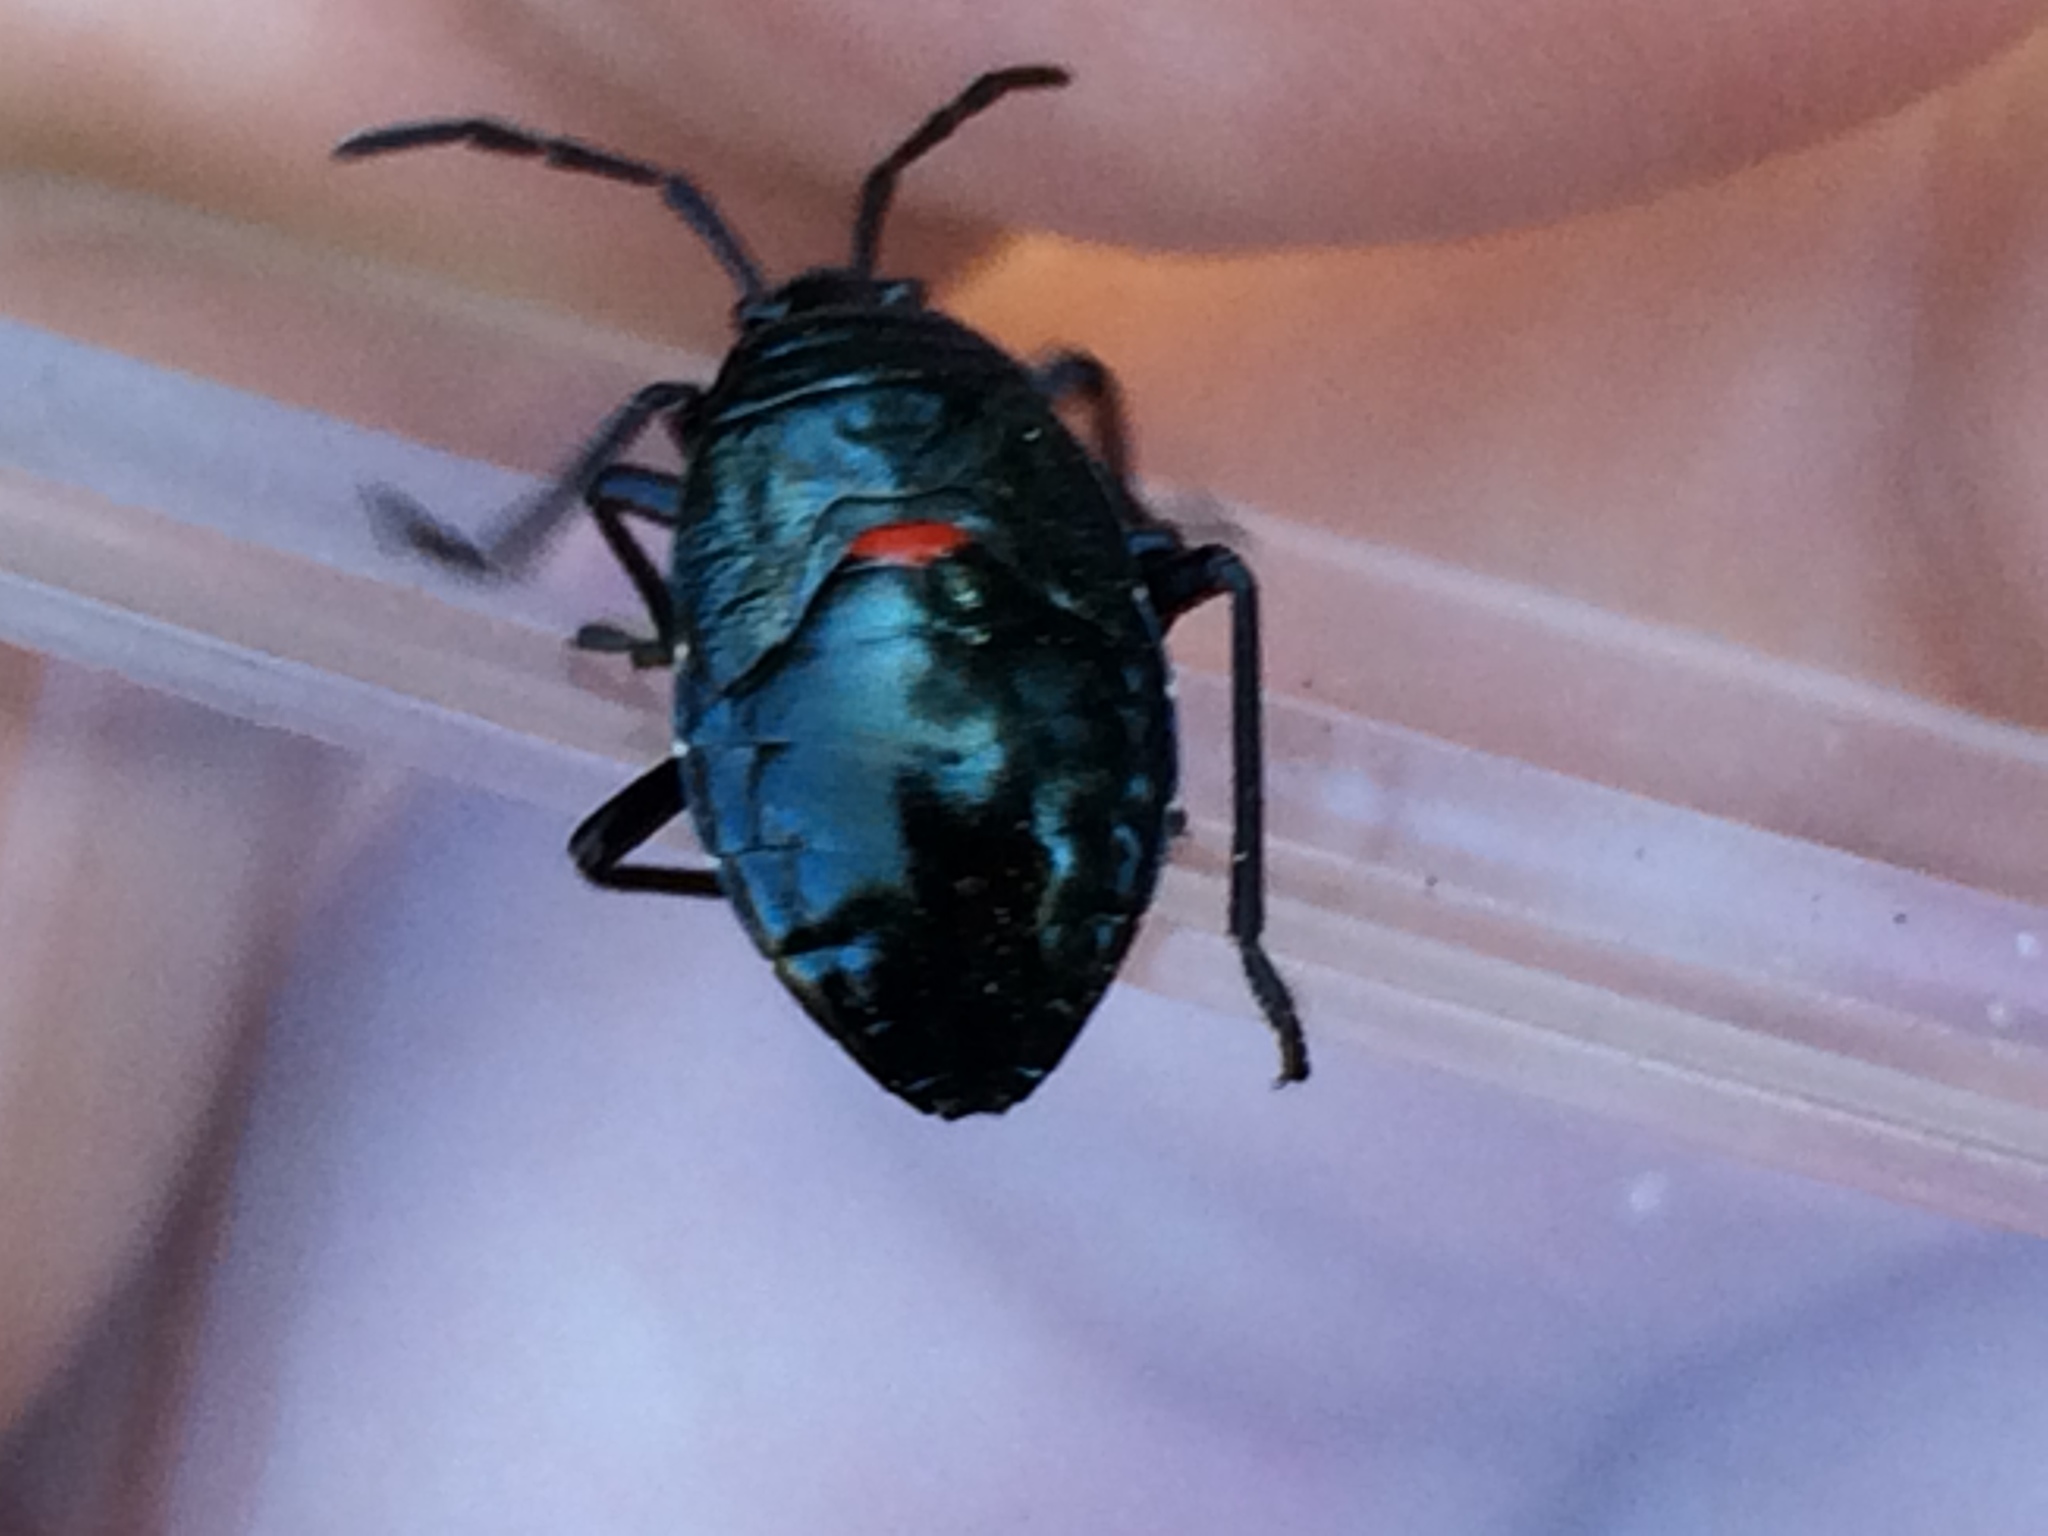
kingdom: Animalia
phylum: Arthropoda
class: Insecta
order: Hemiptera
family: Largidae
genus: Largus
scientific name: Largus californicus
